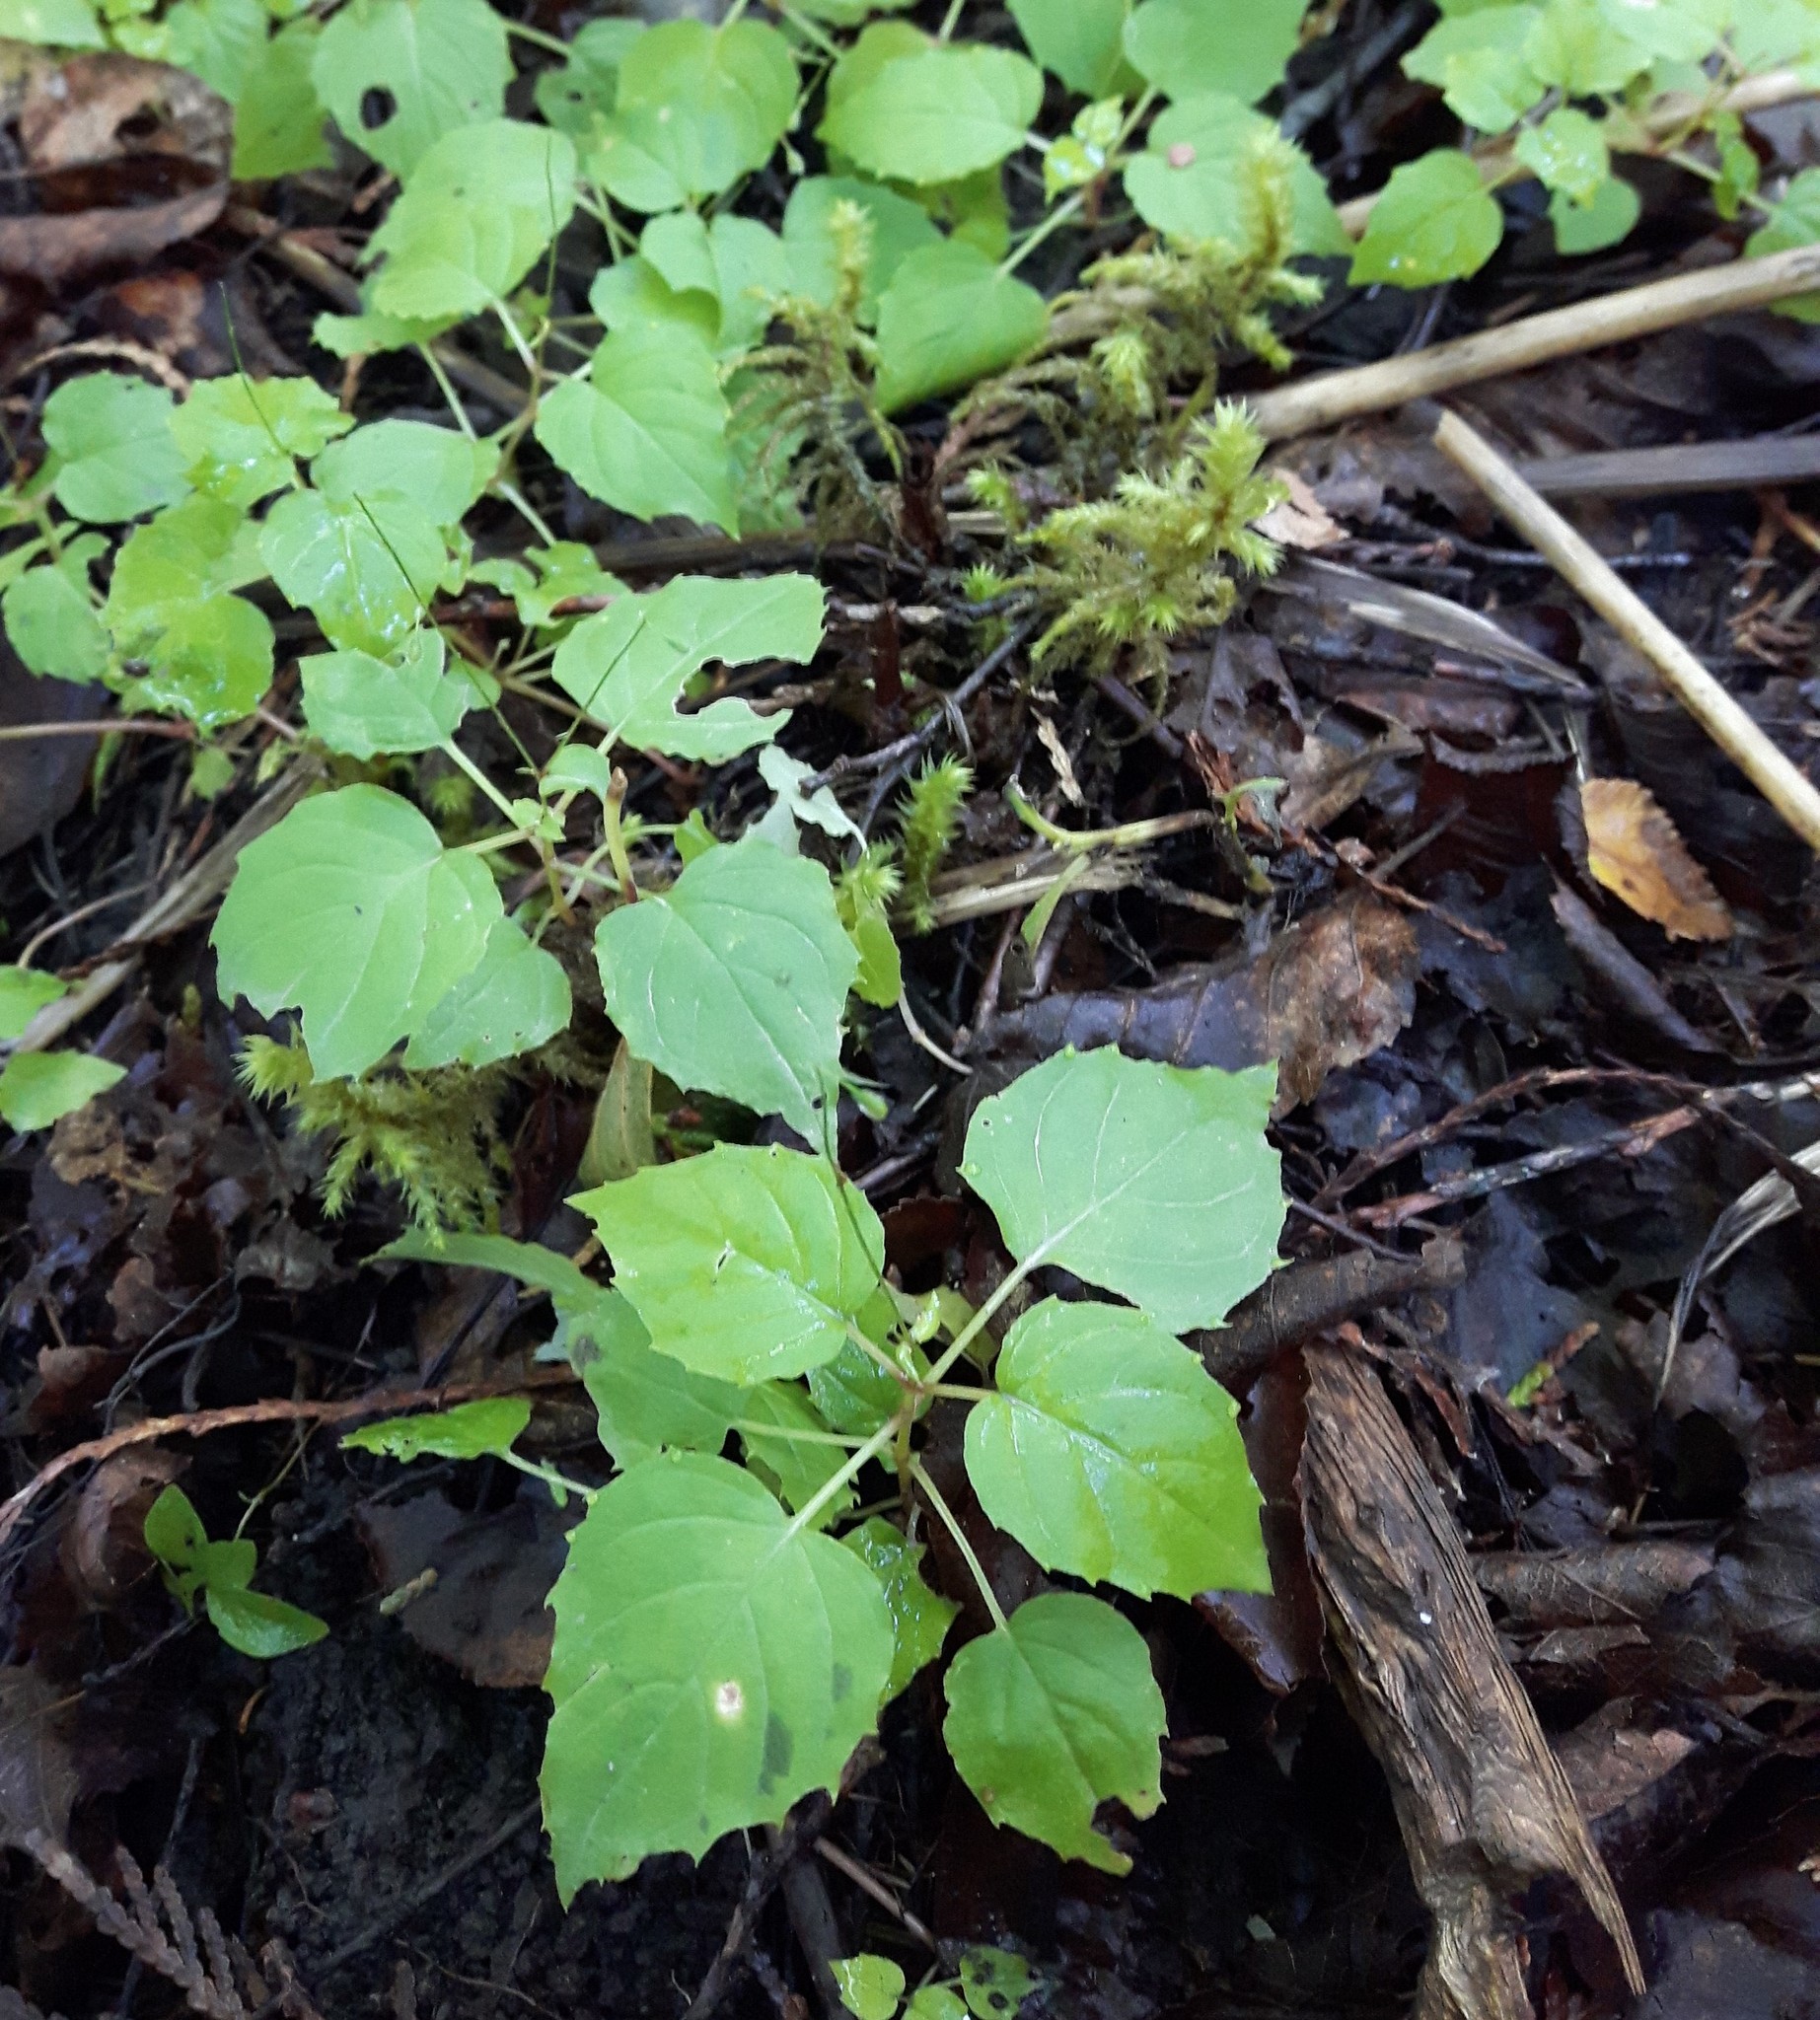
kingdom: Plantae
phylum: Tracheophyta
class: Magnoliopsida
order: Myrtales
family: Onagraceae
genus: Circaea
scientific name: Circaea alpina
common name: Alpine enchanter's-nightshade
